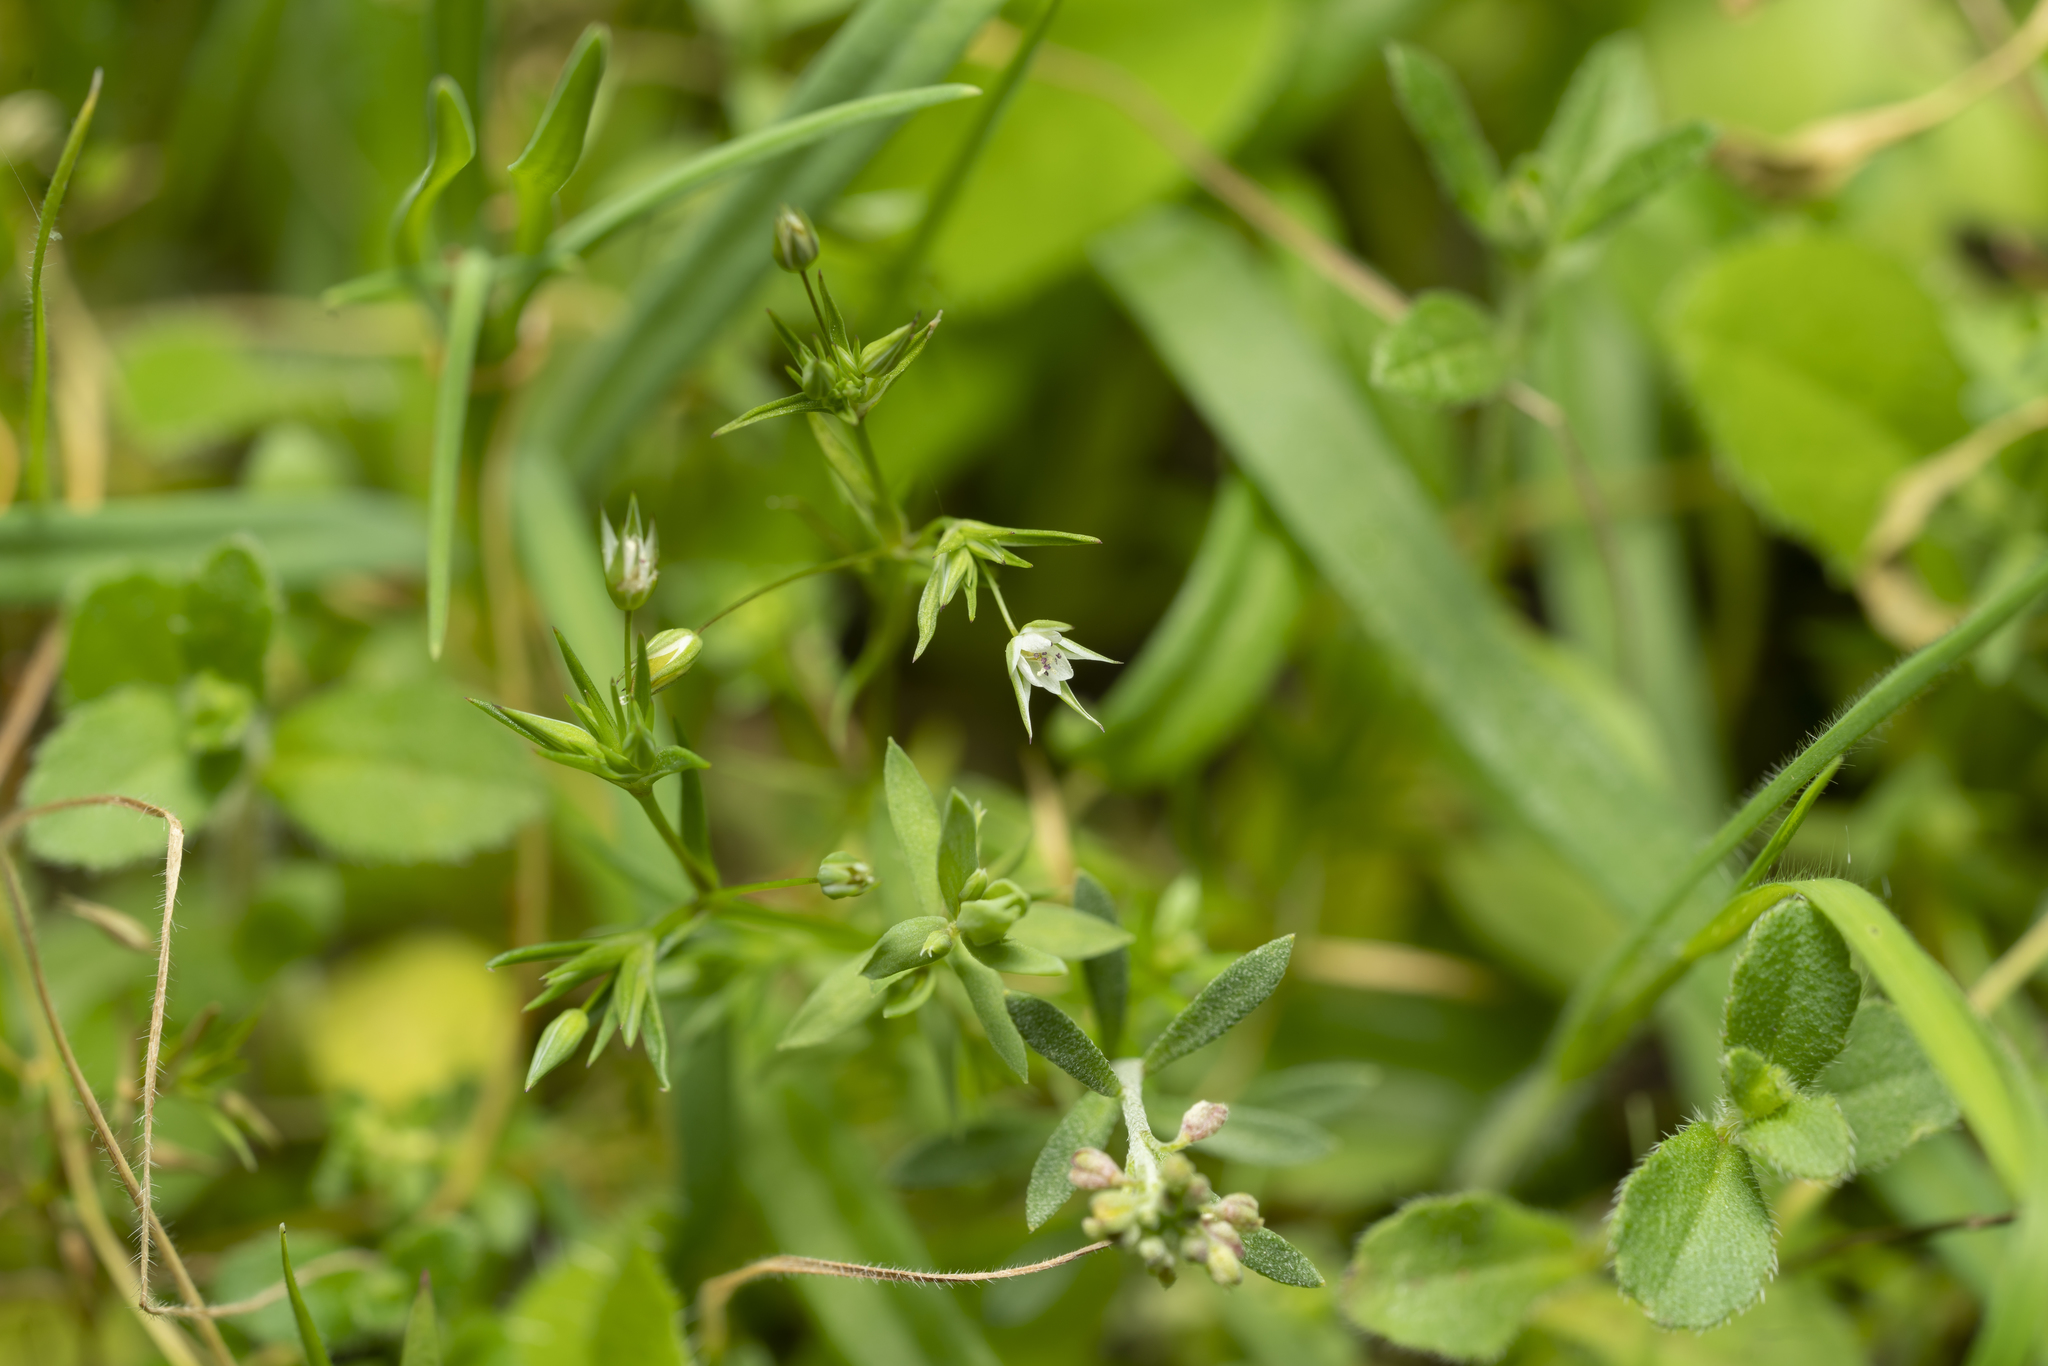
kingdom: Plantae
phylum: Tracheophyta
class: Magnoliopsida
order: Caryophyllales
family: Caryophyllaceae
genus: Sabulina
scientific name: Sabulina tenuifolia
